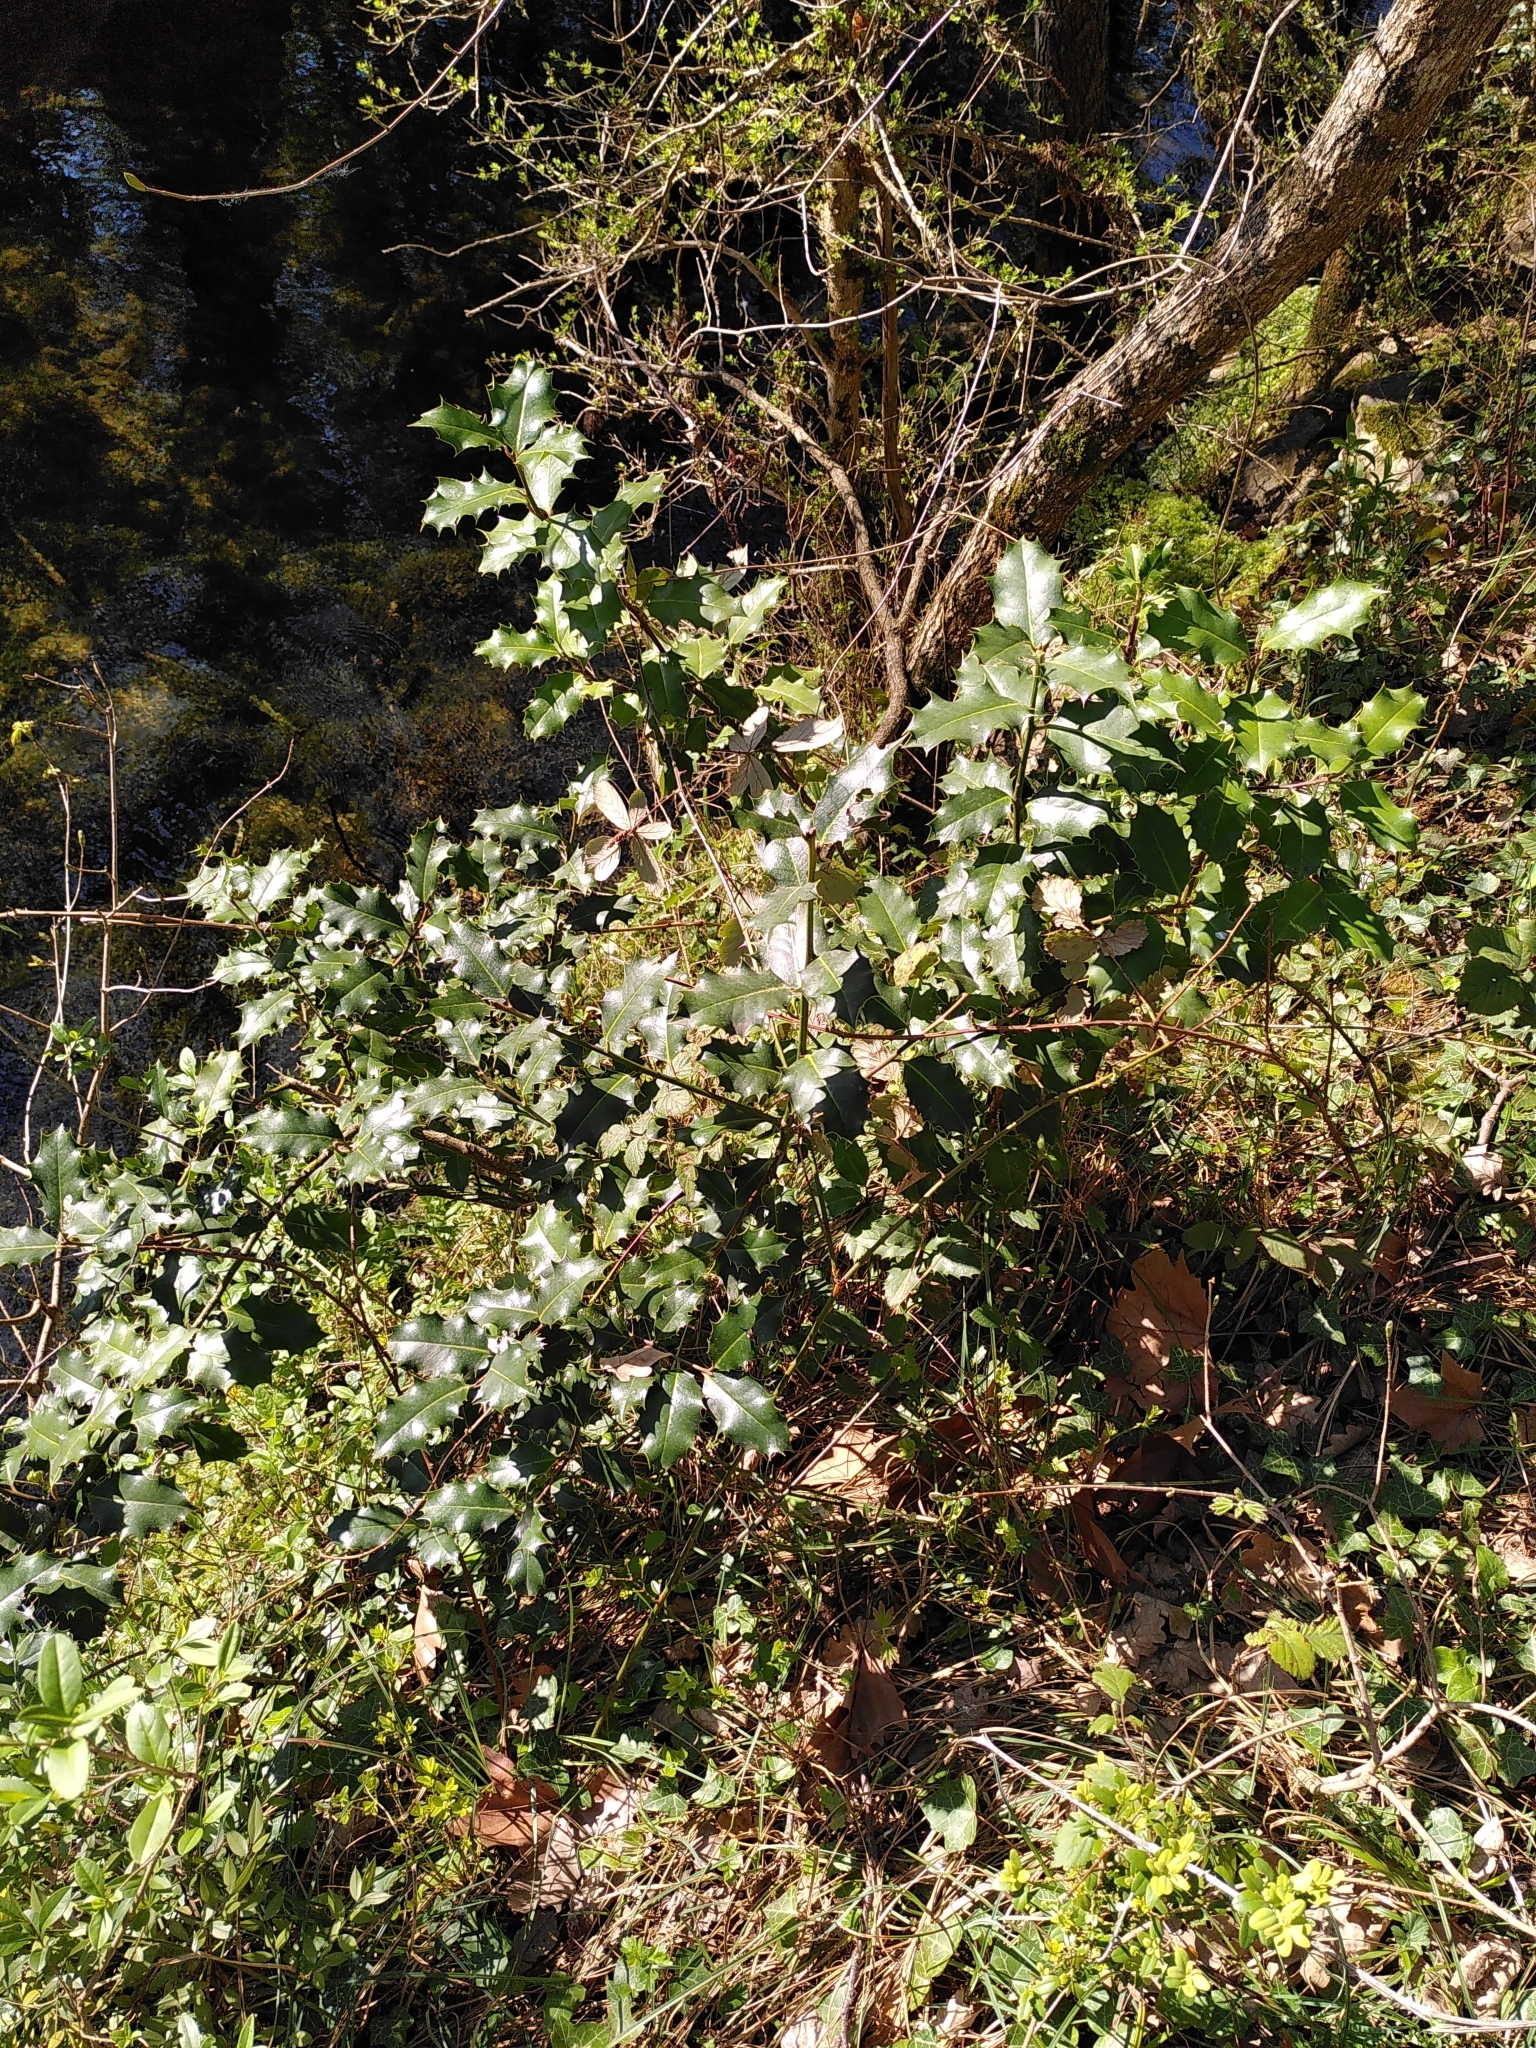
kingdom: Plantae
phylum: Tracheophyta
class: Magnoliopsida
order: Aquifoliales
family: Aquifoliaceae
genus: Ilex
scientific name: Ilex aquifolium
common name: English holly
